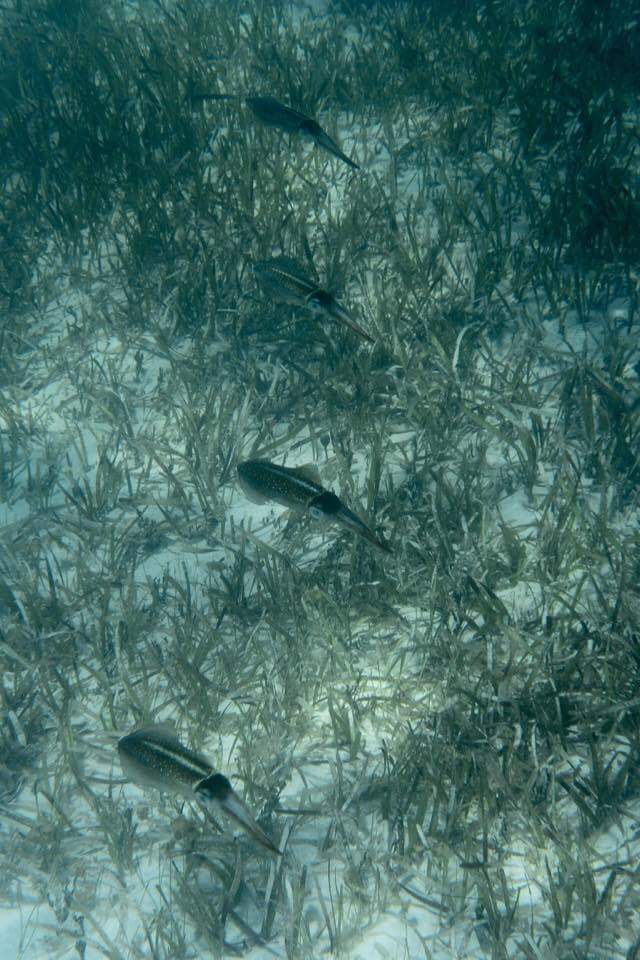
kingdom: Animalia
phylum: Mollusca
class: Cephalopoda
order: Myopsida
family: Loliginidae
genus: Sepioteuthis
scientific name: Sepioteuthis sepioidea
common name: Caribbean reef squid
